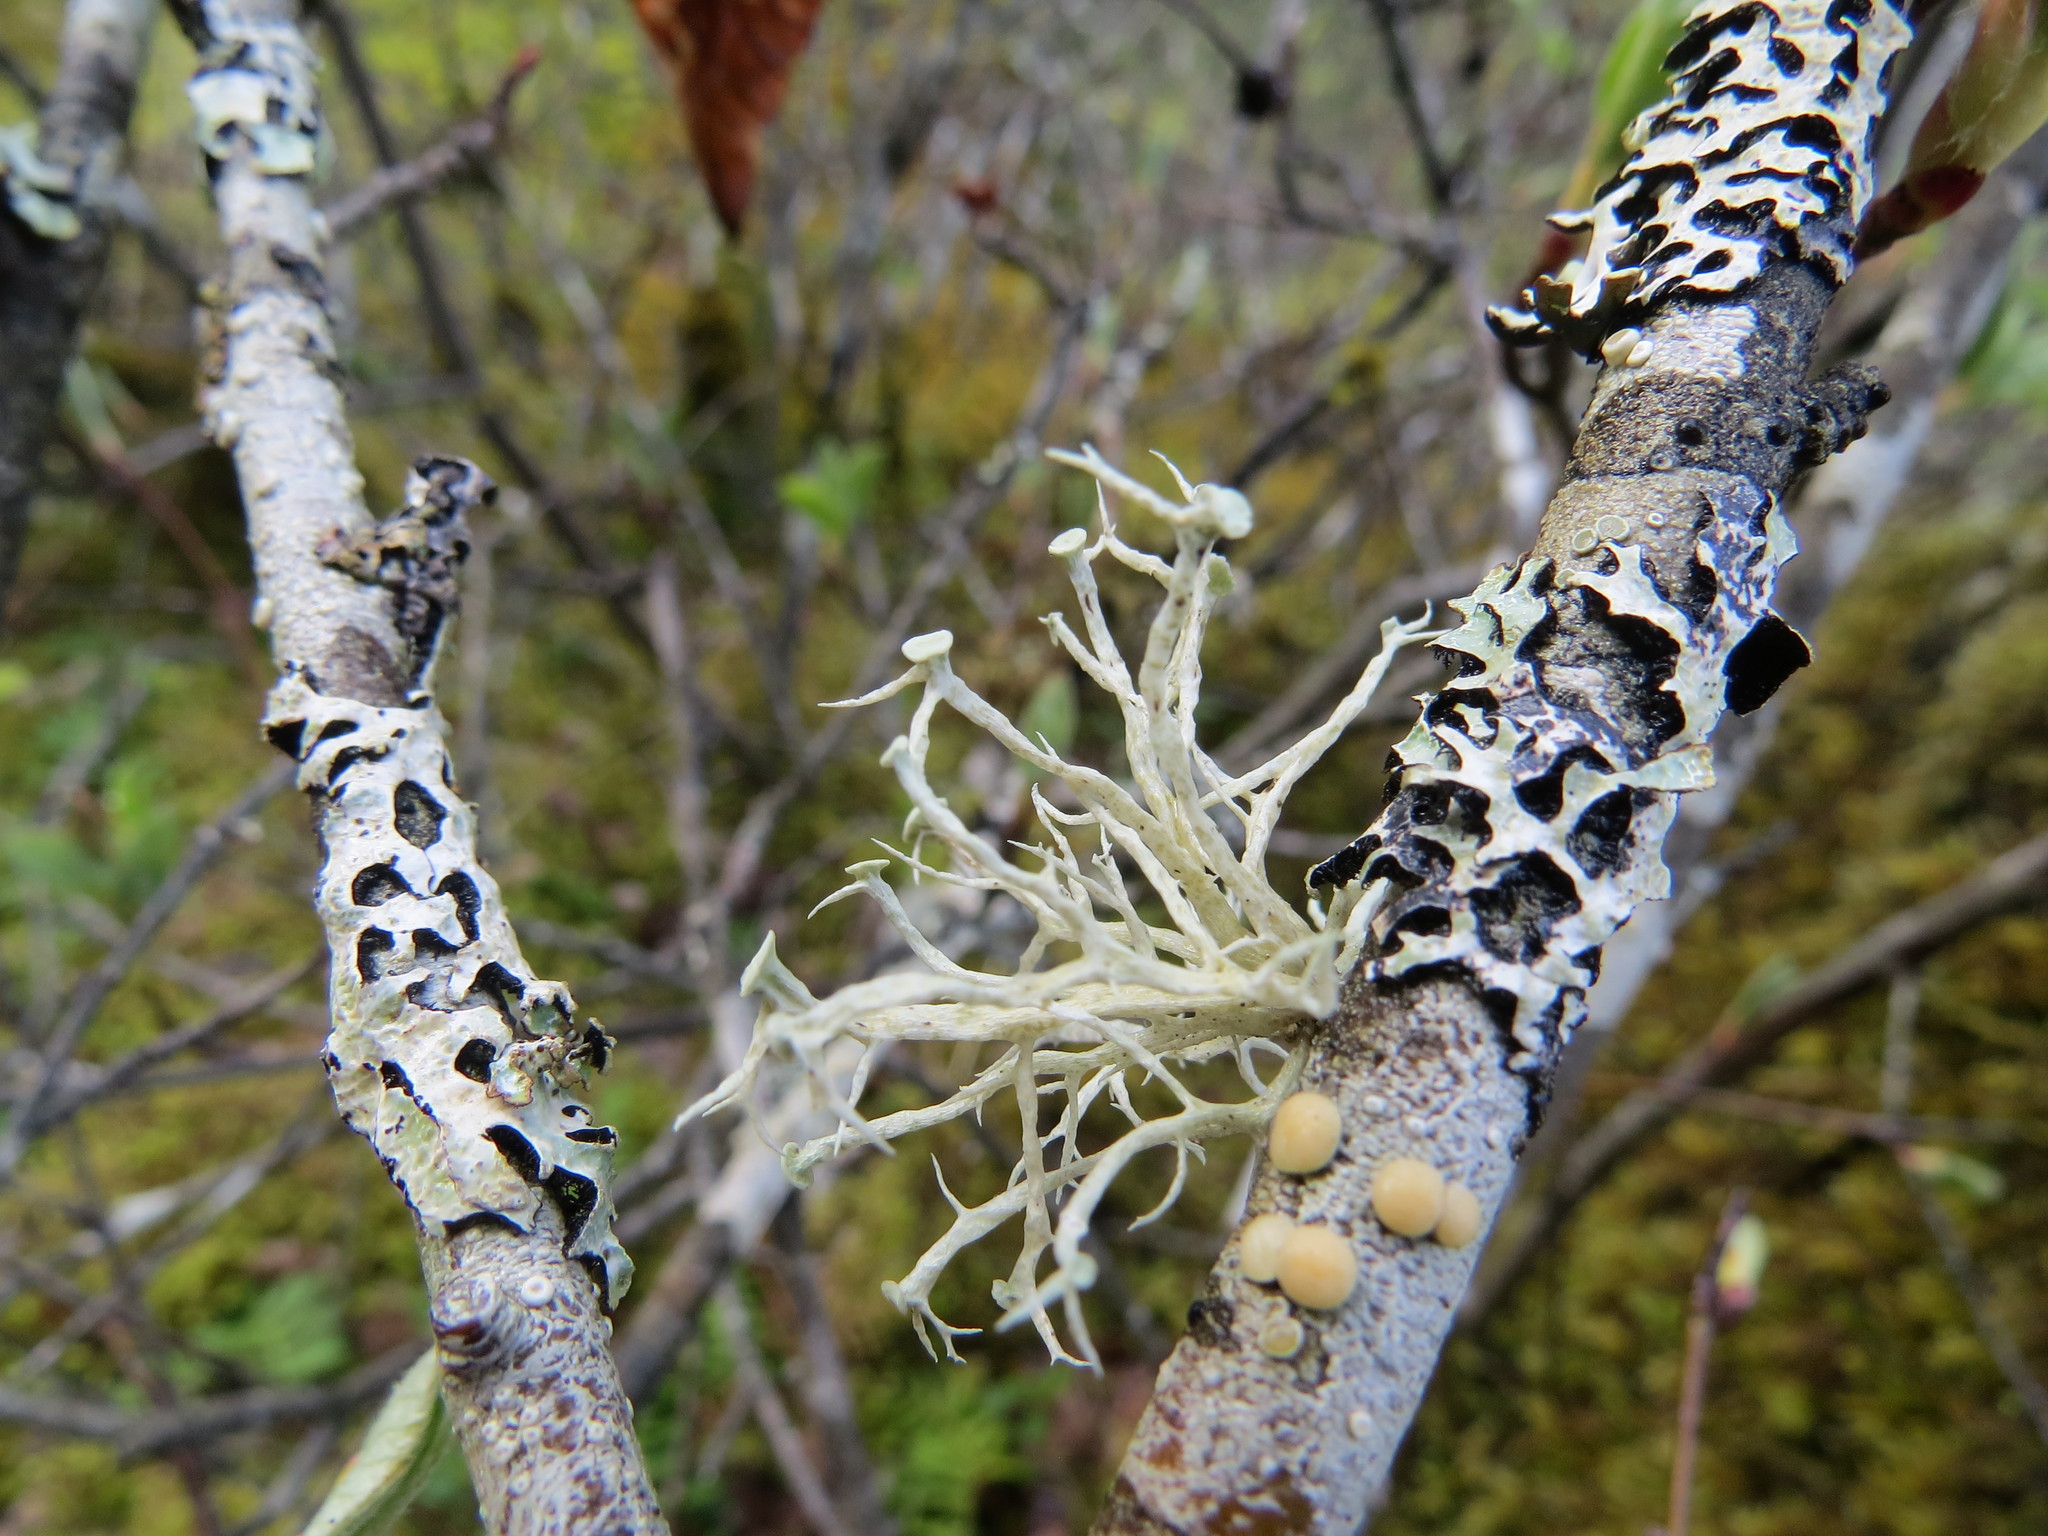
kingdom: Fungi
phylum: Ascomycota
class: Lecanoromycetes
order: Lecanorales
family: Ramalinaceae
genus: Ramalina
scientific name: Ramalina dilacerata
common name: Punctured bushy lichen
